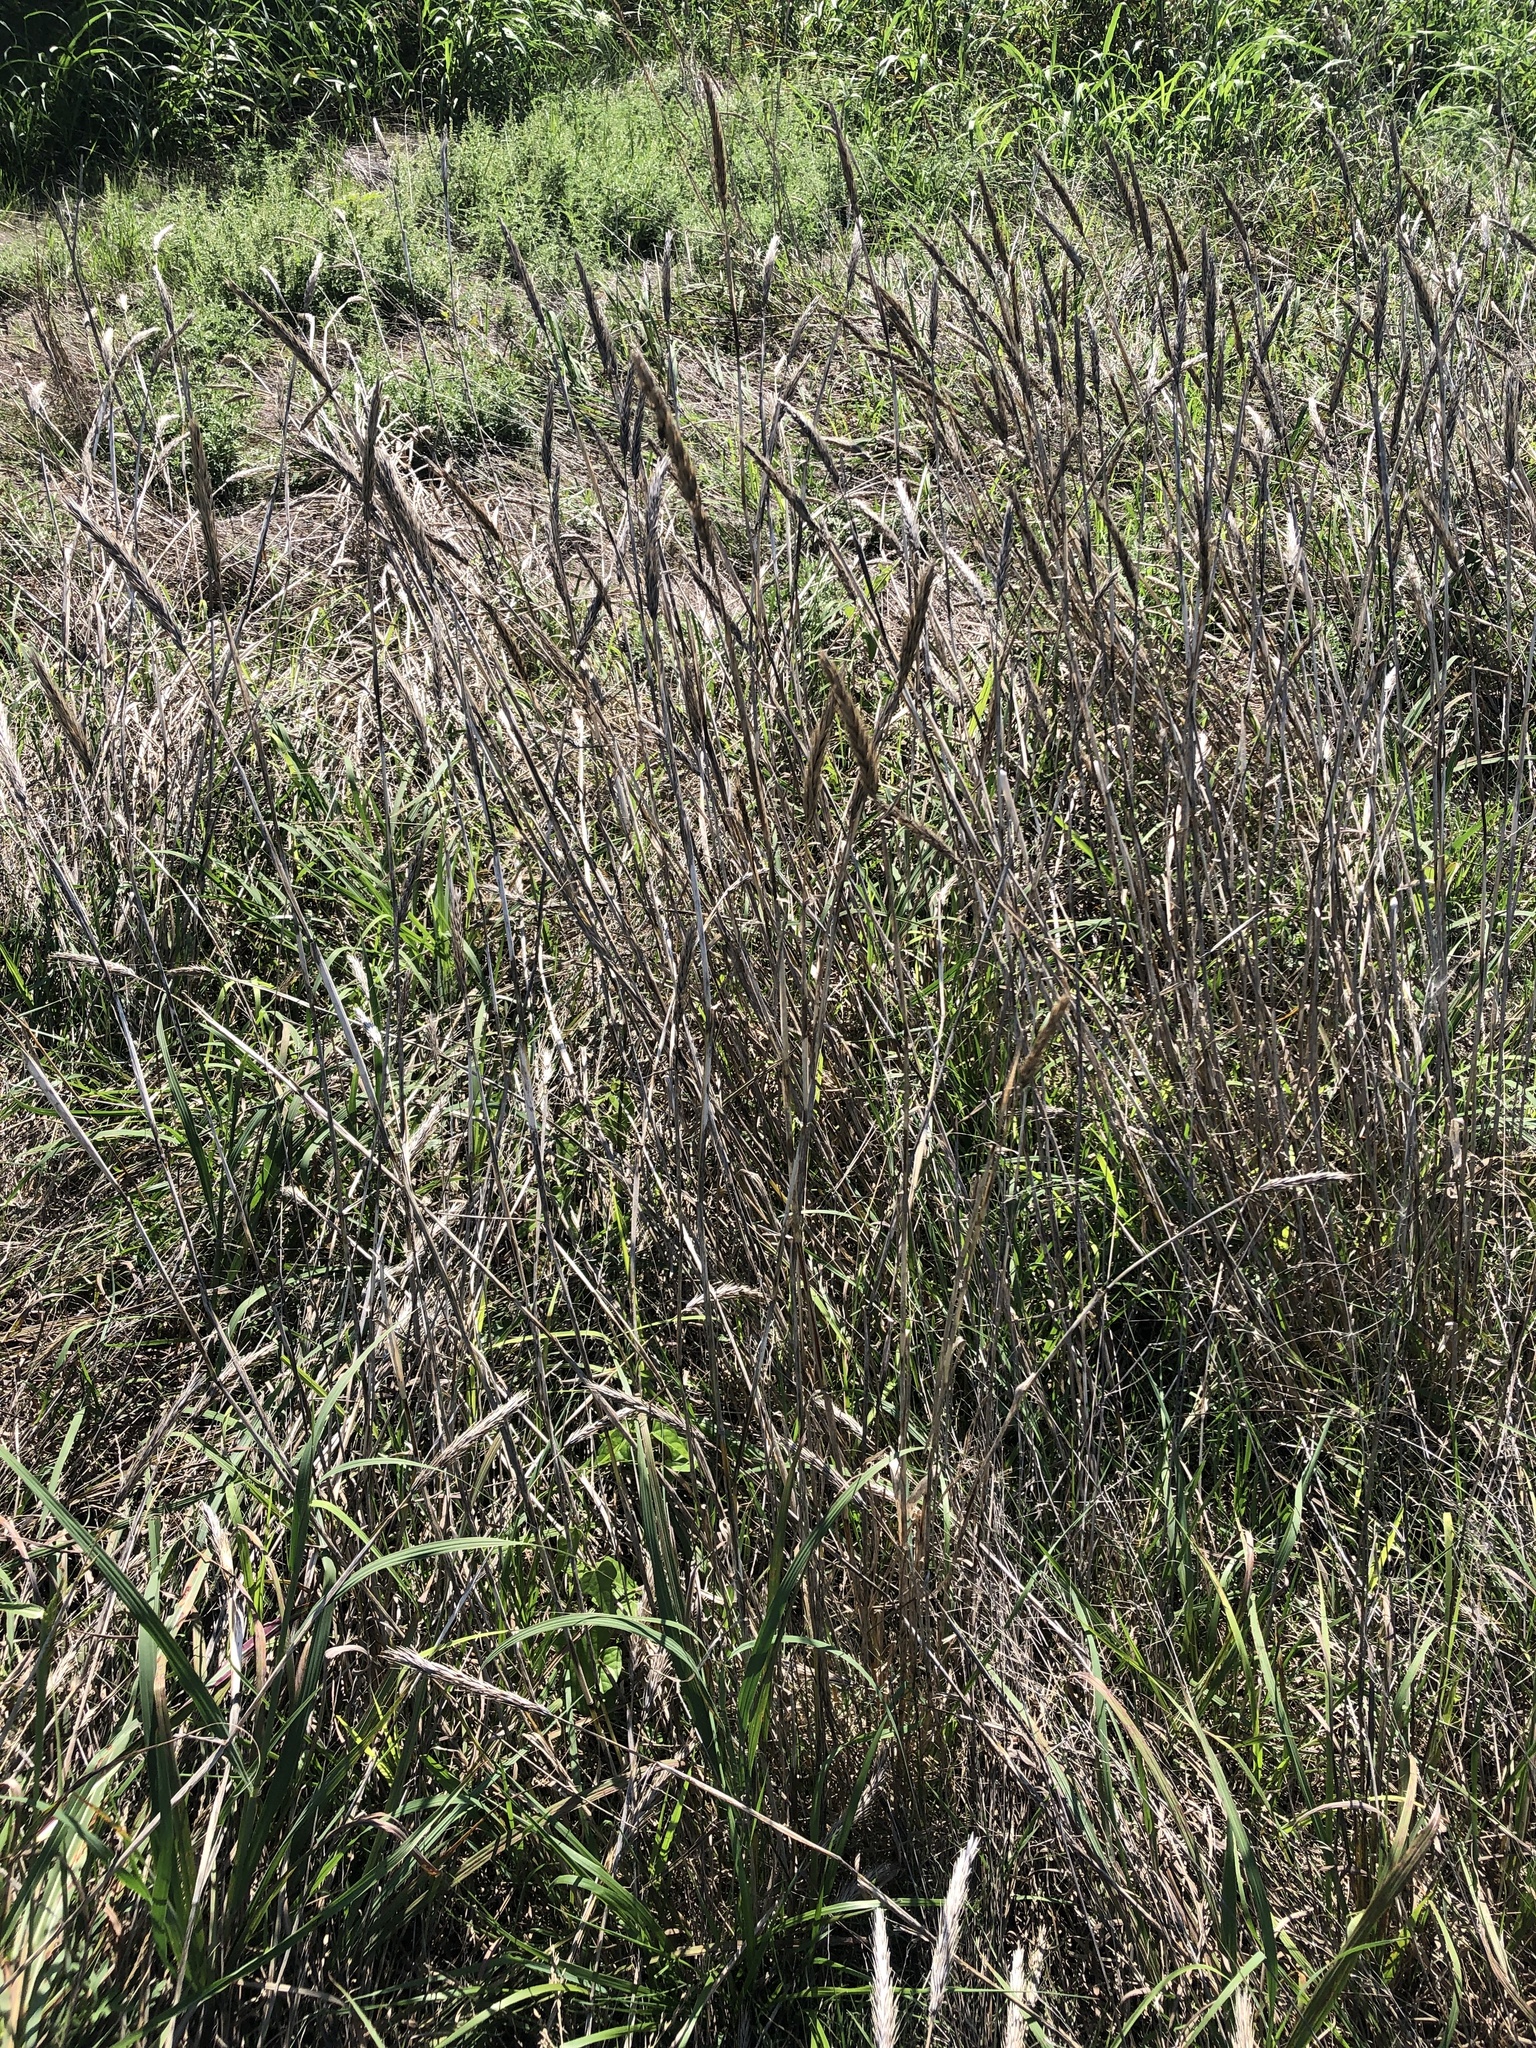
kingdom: Plantae
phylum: Tracheophyta
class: Liliopsida
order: Poales
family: Poaceae
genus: Elymus
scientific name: Elymus virginicus
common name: Common eastern wildrye
